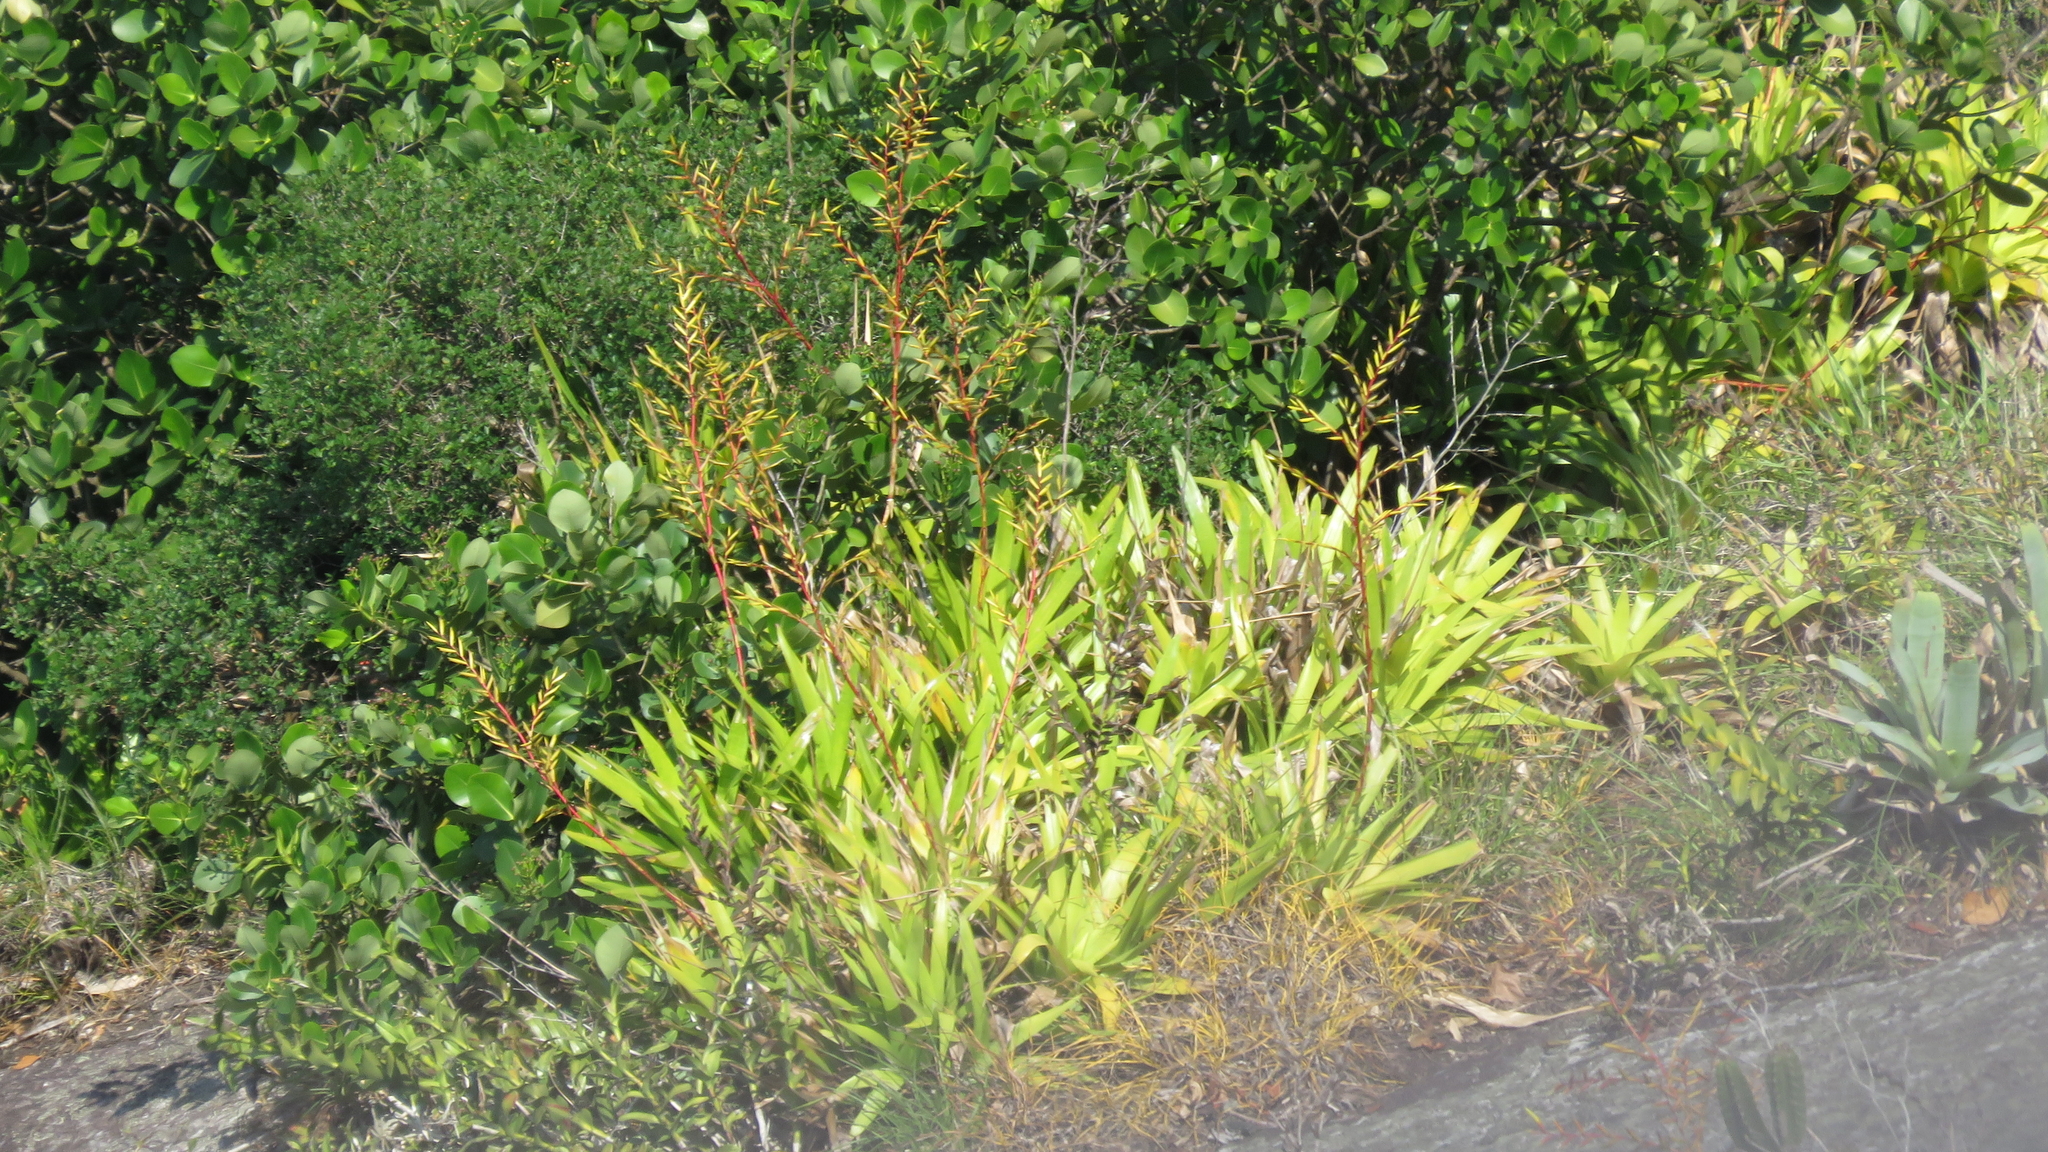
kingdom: Plantae
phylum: Tracheophyta
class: Liliopsida
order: Poales
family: Bromeliaceae
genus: Vriesea
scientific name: Vriesea neoglutinosa
